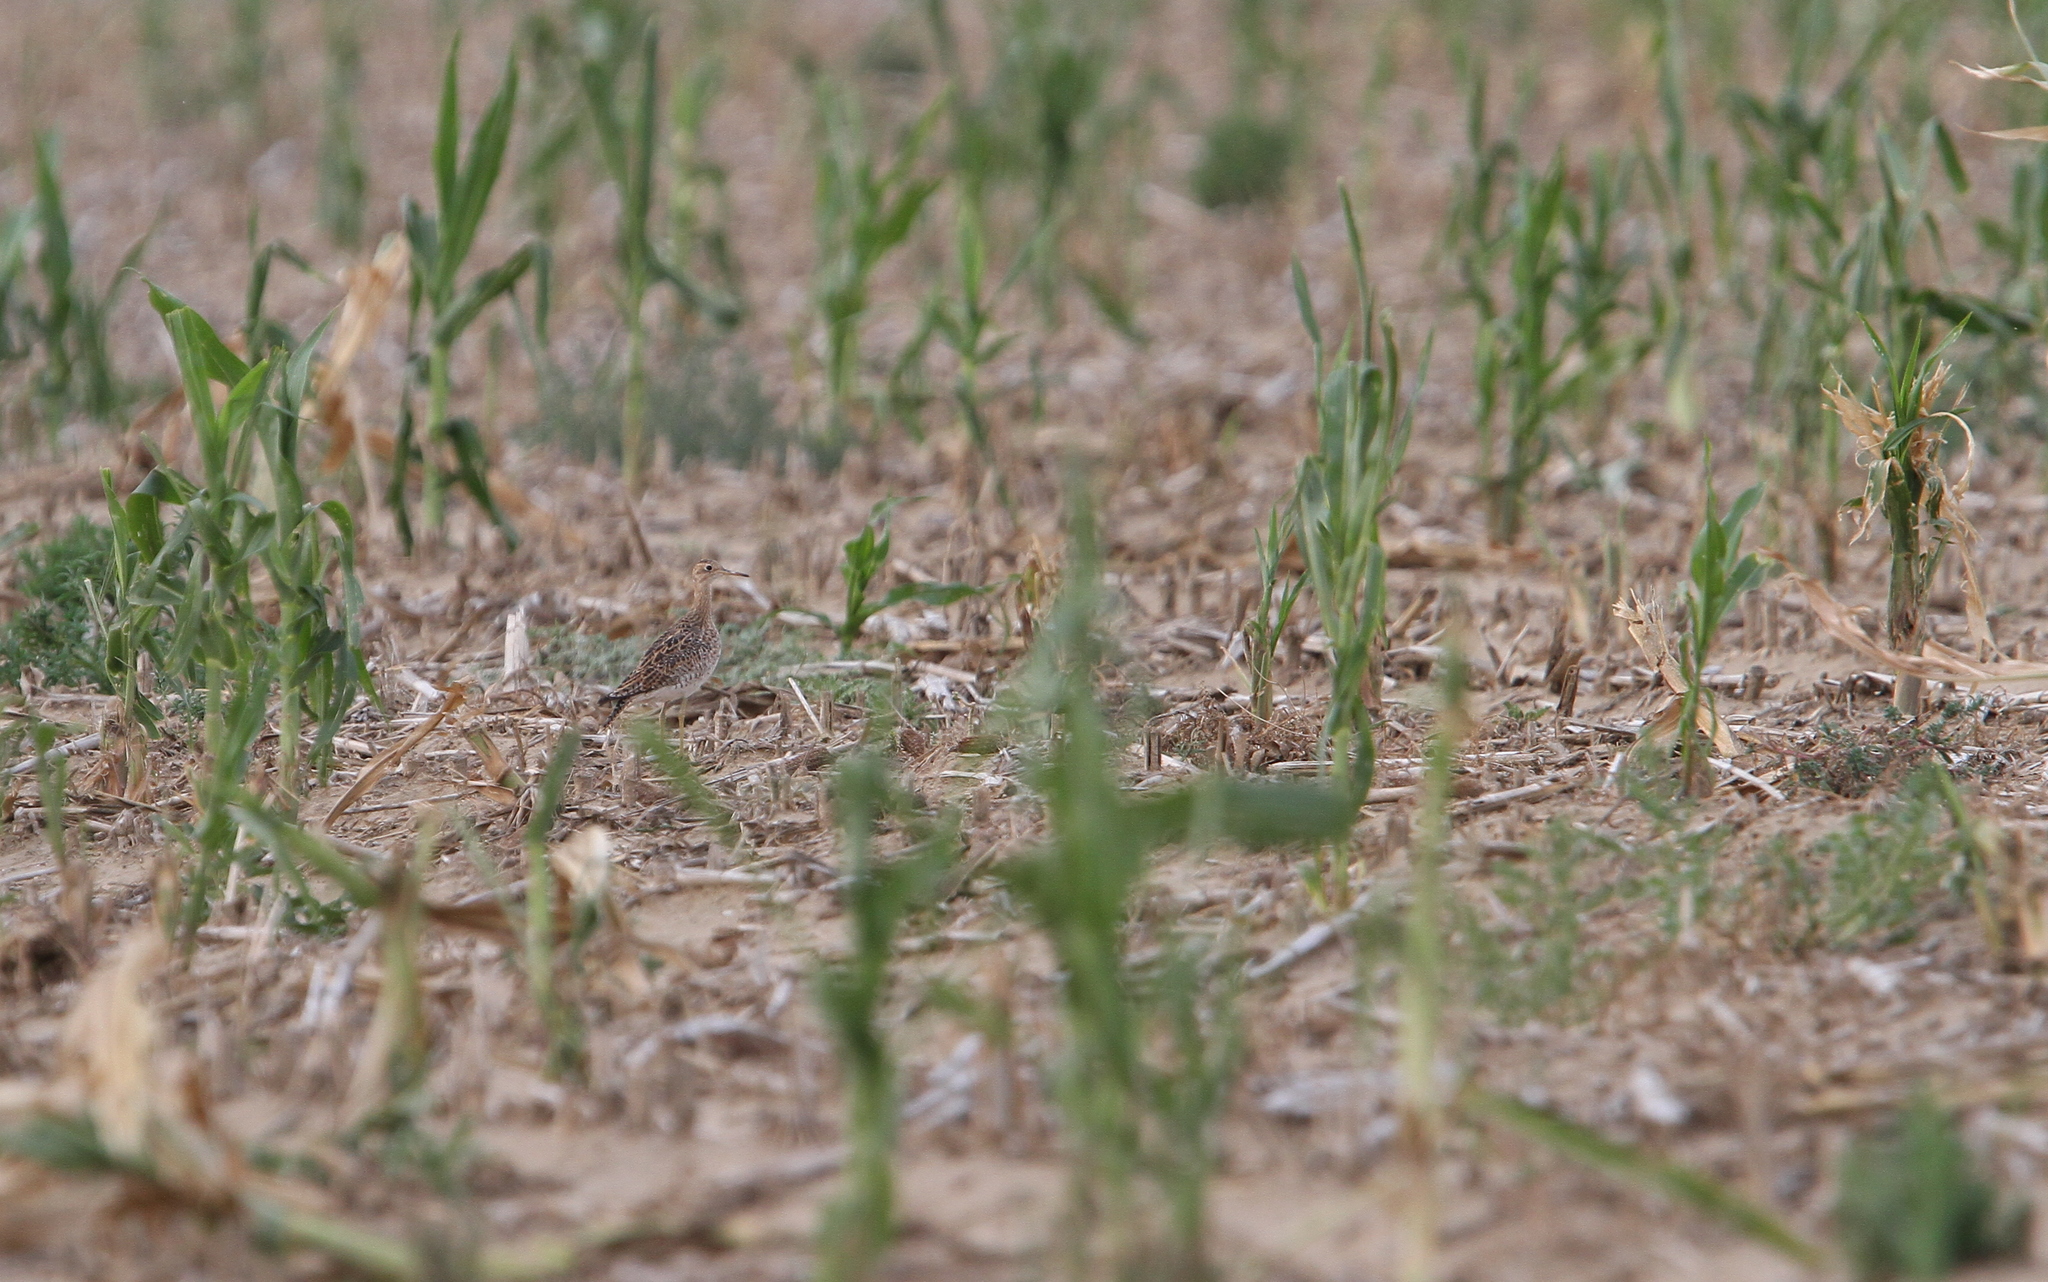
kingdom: Animalia
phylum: Chordata
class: Aves
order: Charadriiformes
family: Scolopacidae
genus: Bartramia
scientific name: Bartramia longicauda
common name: Upland sandpiper
